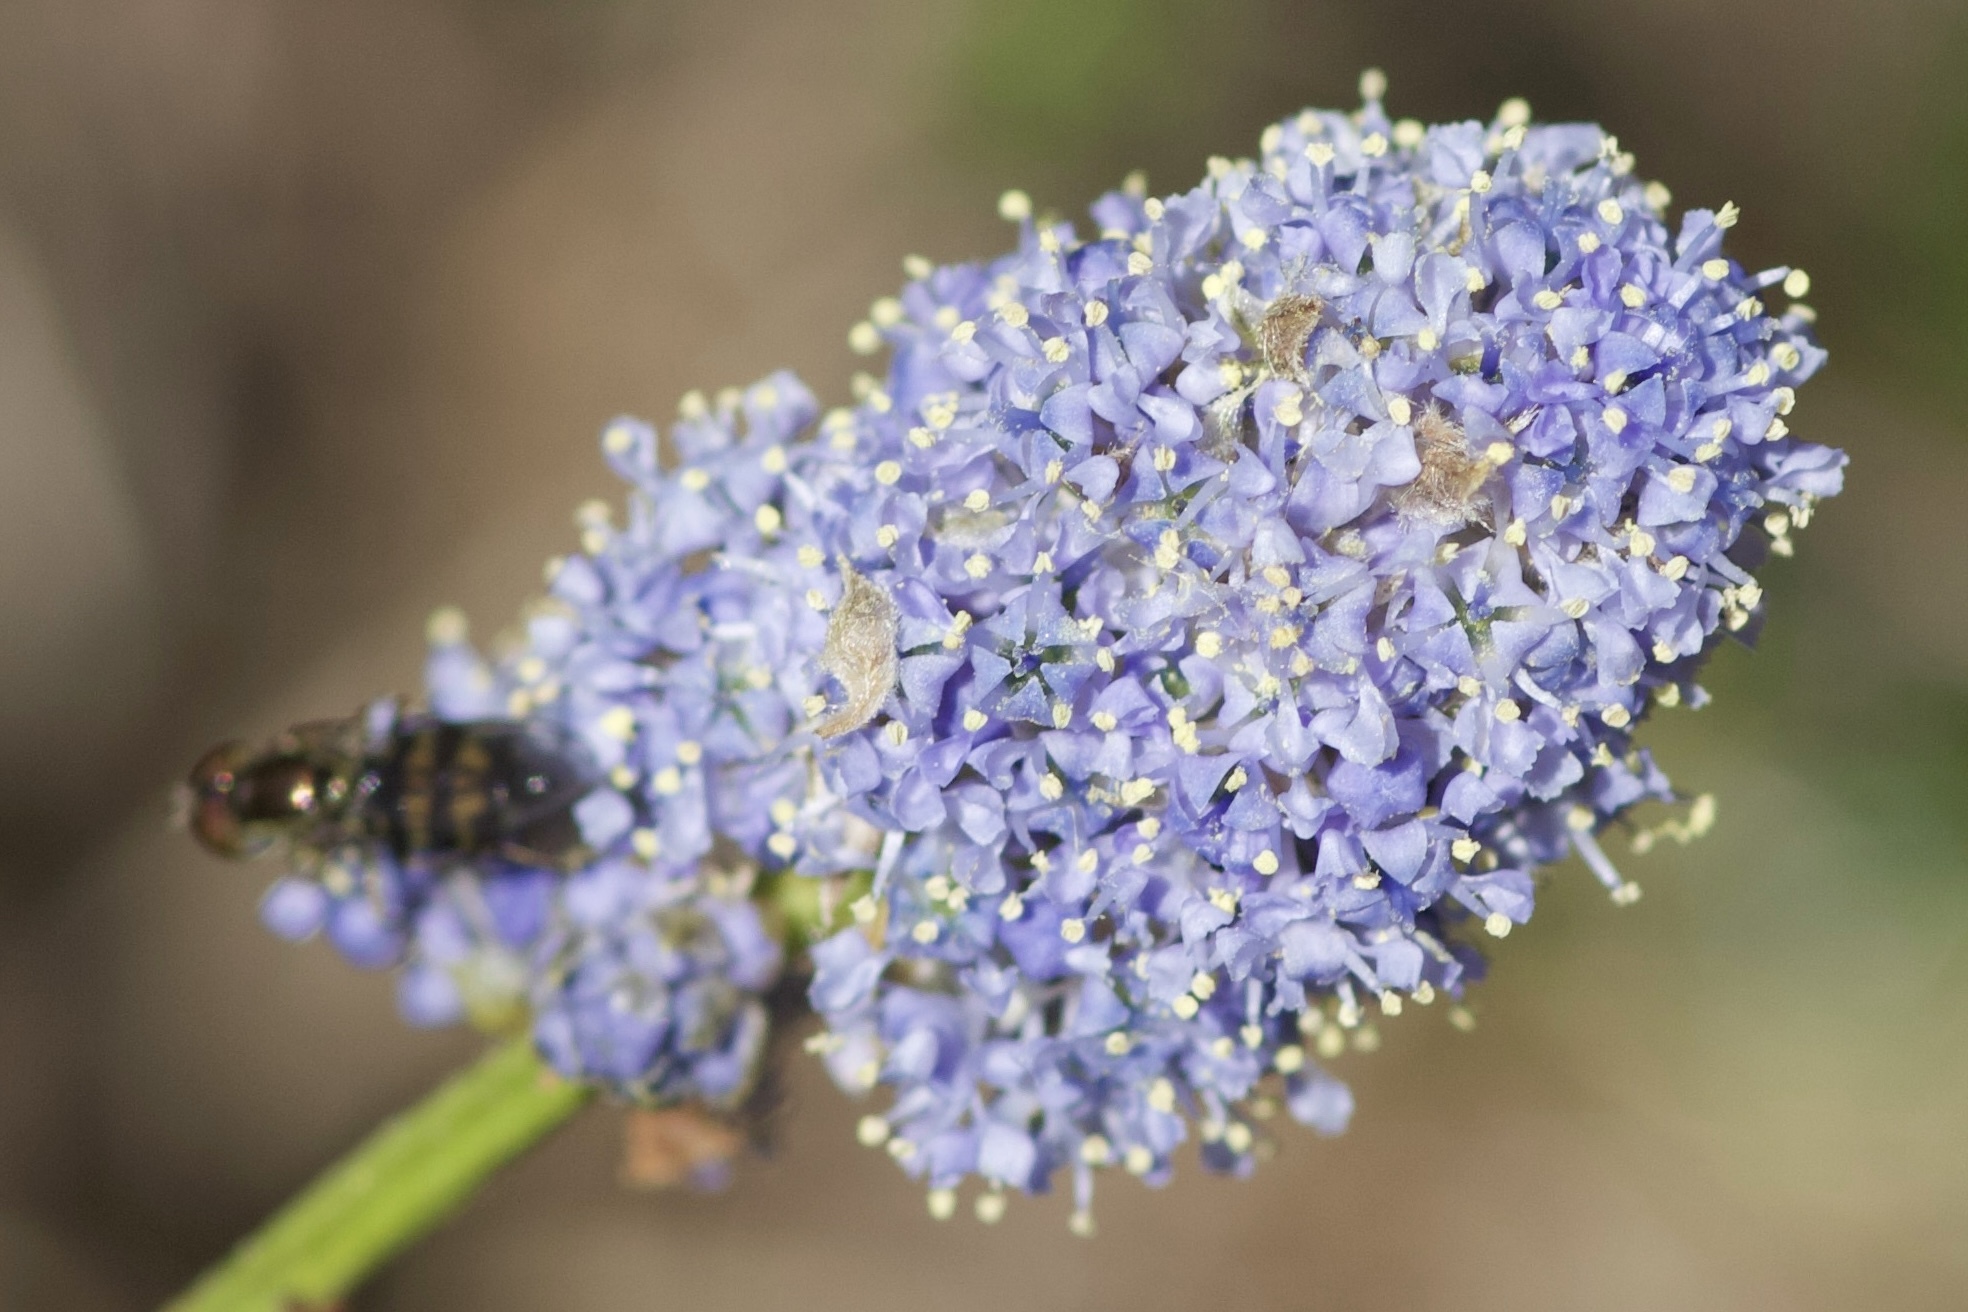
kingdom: Plantae
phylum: Tracheophyta
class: Magnoliopsida
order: Rosales
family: Rhamnaceae
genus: Ceanothus
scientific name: Ceanothus thyrsiflorus
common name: California-lilac
